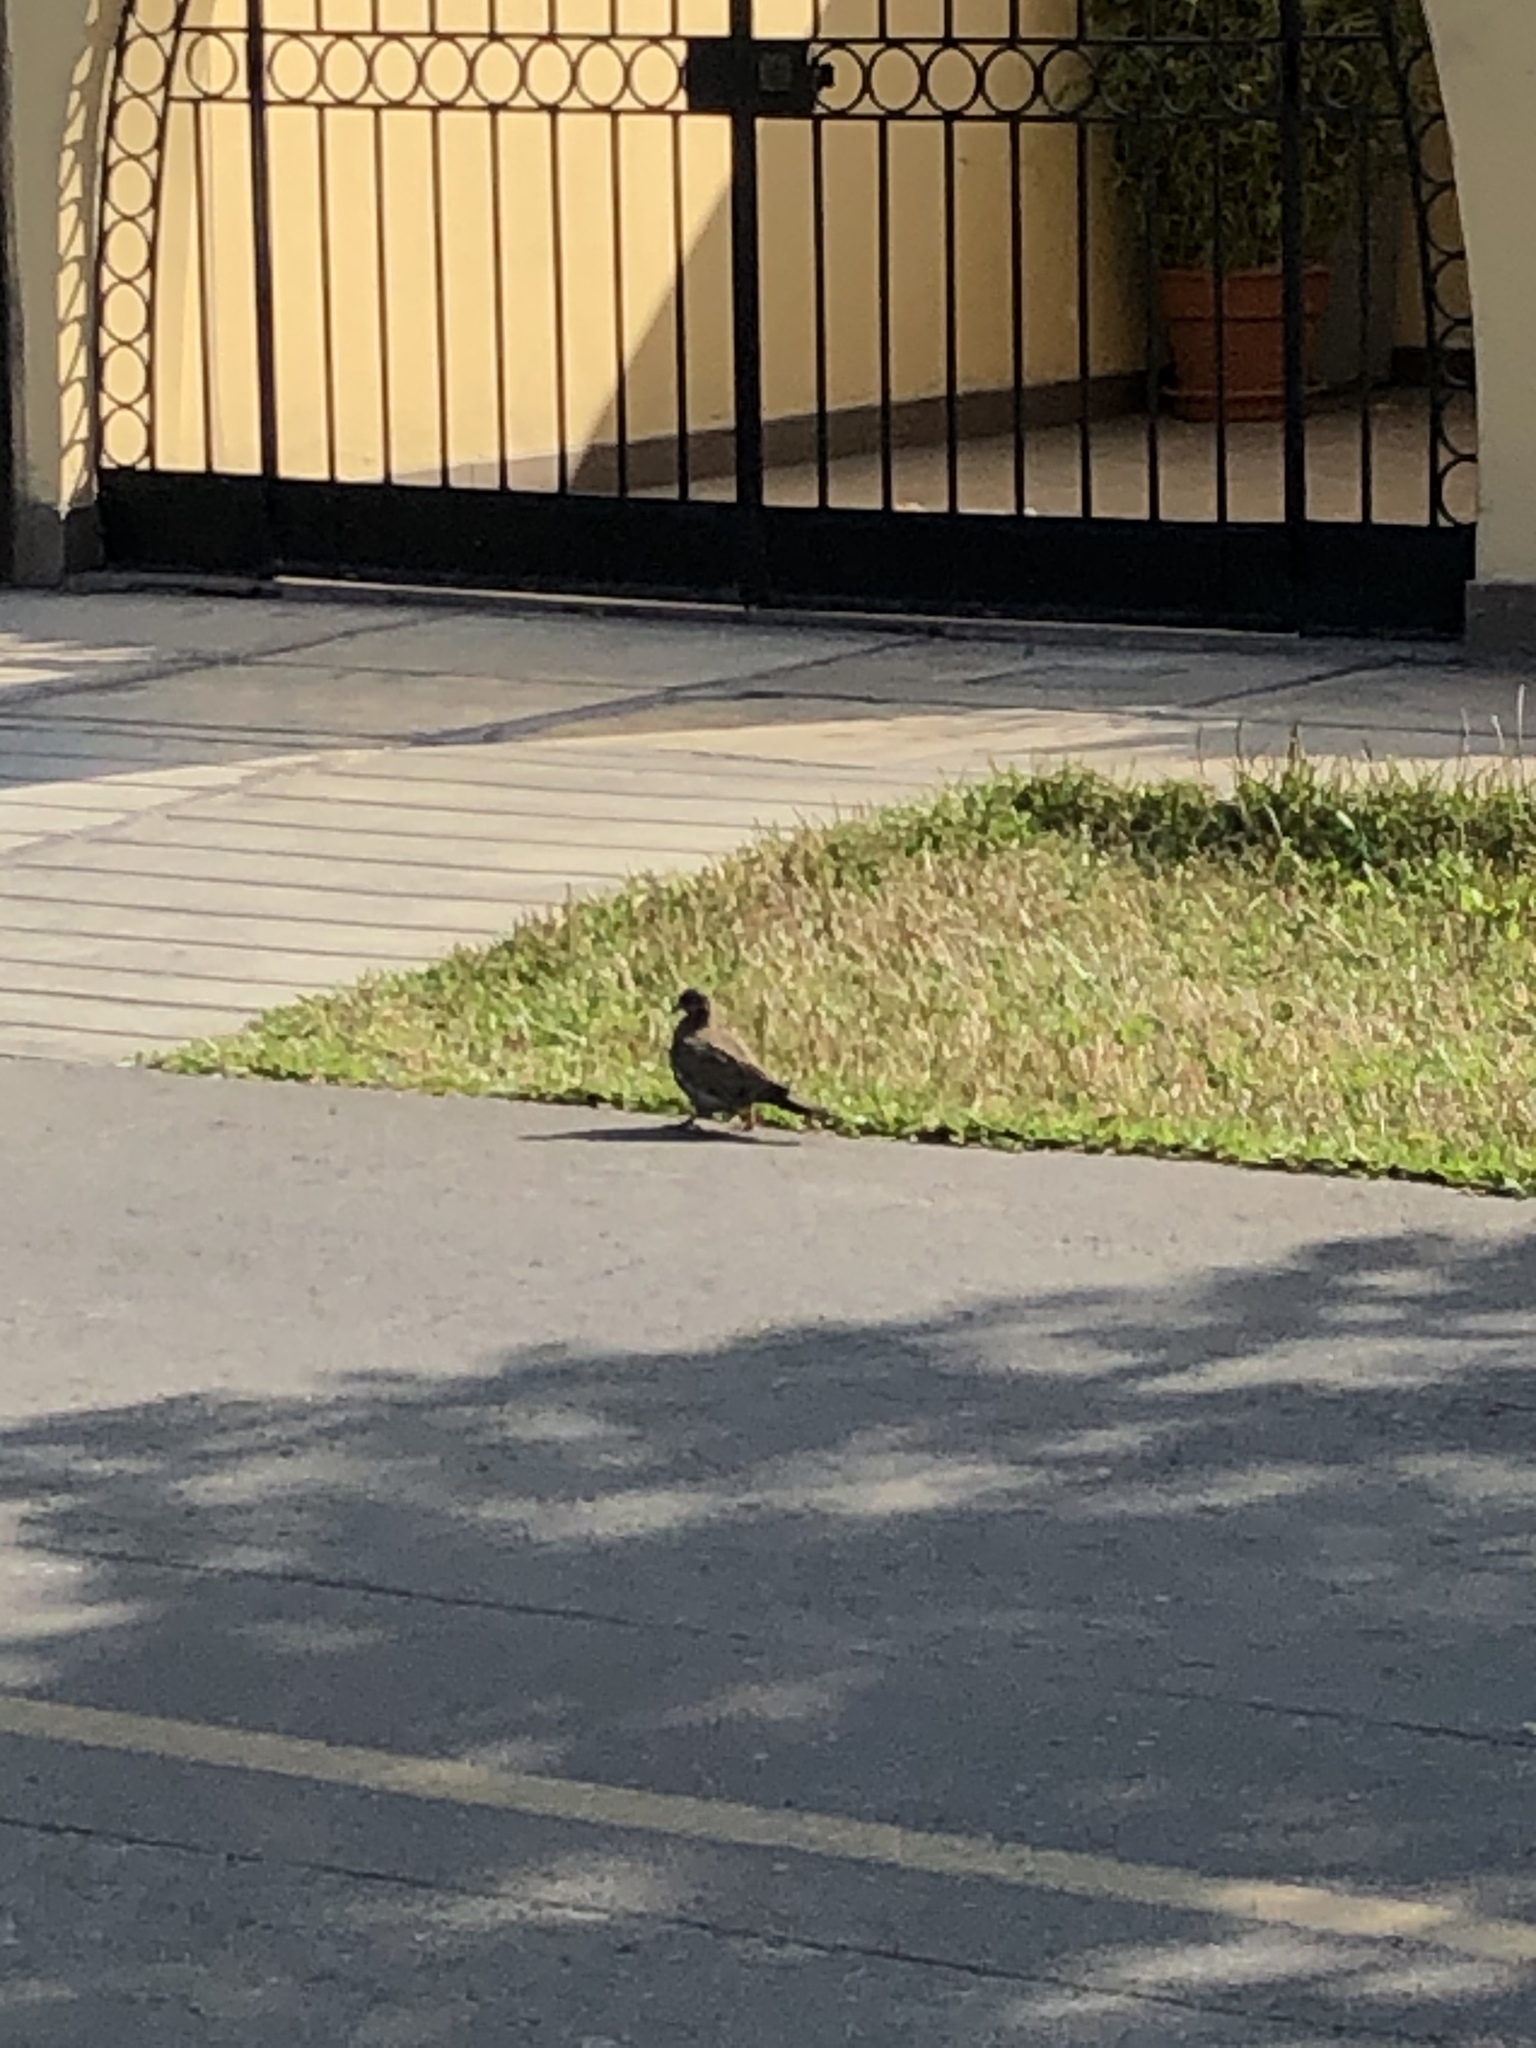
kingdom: Animalia
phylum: Chordata
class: Aves
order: Columbiformes
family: Columbidae
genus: Zenaida
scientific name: Zenaida meloda
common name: West peruvian dove
